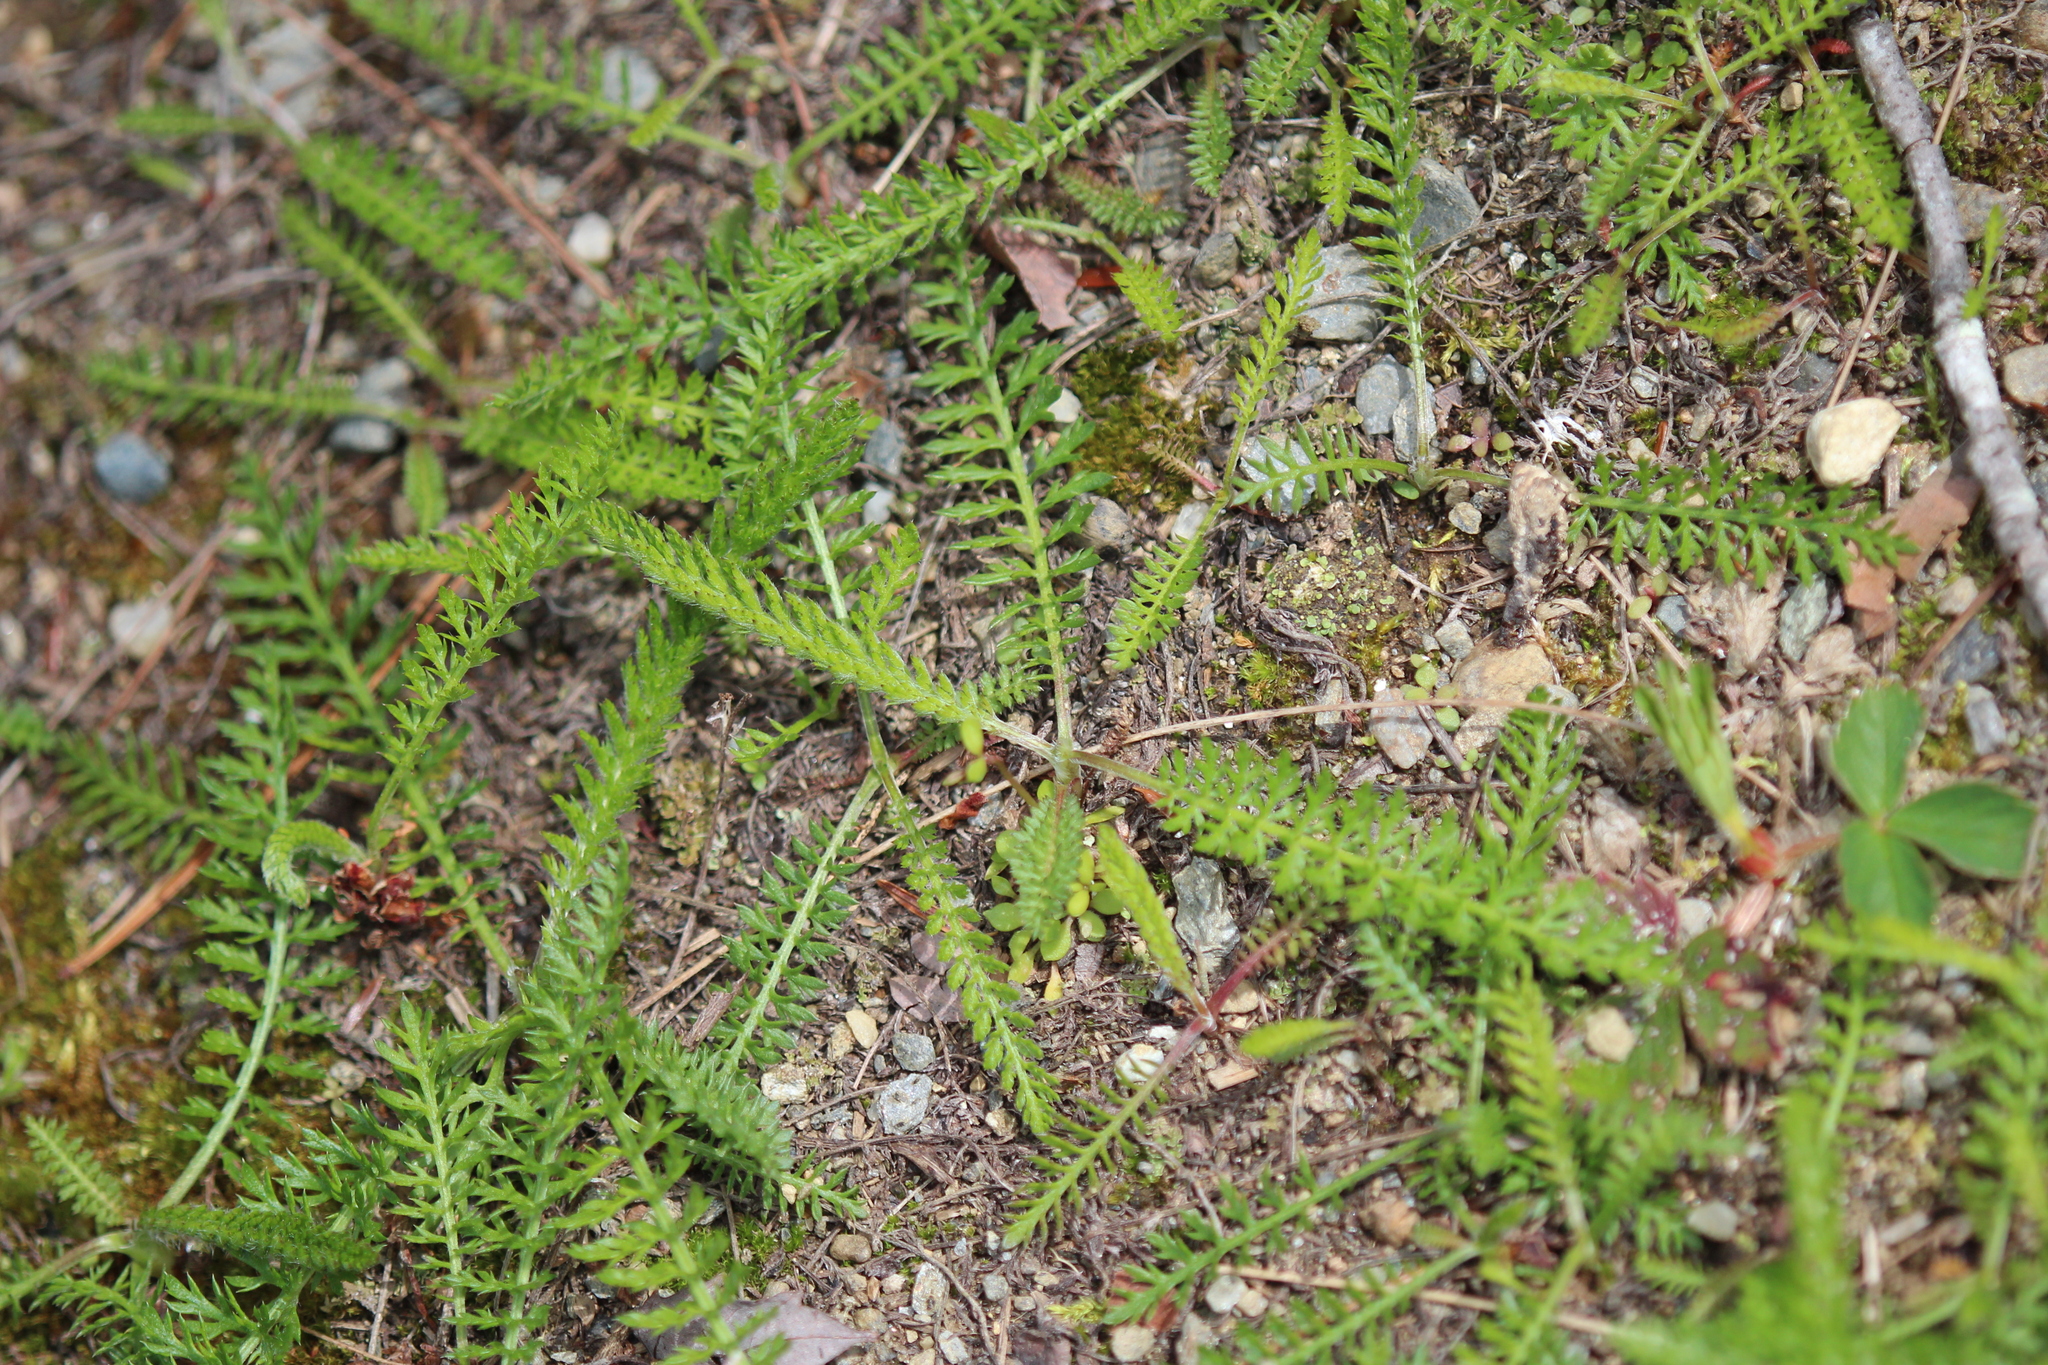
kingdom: Plantae
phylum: Tracheophyta
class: Magnoliopsida
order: Asterales
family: Asteraceae
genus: Achillea
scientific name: Achillea millefolium
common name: Yarrow
